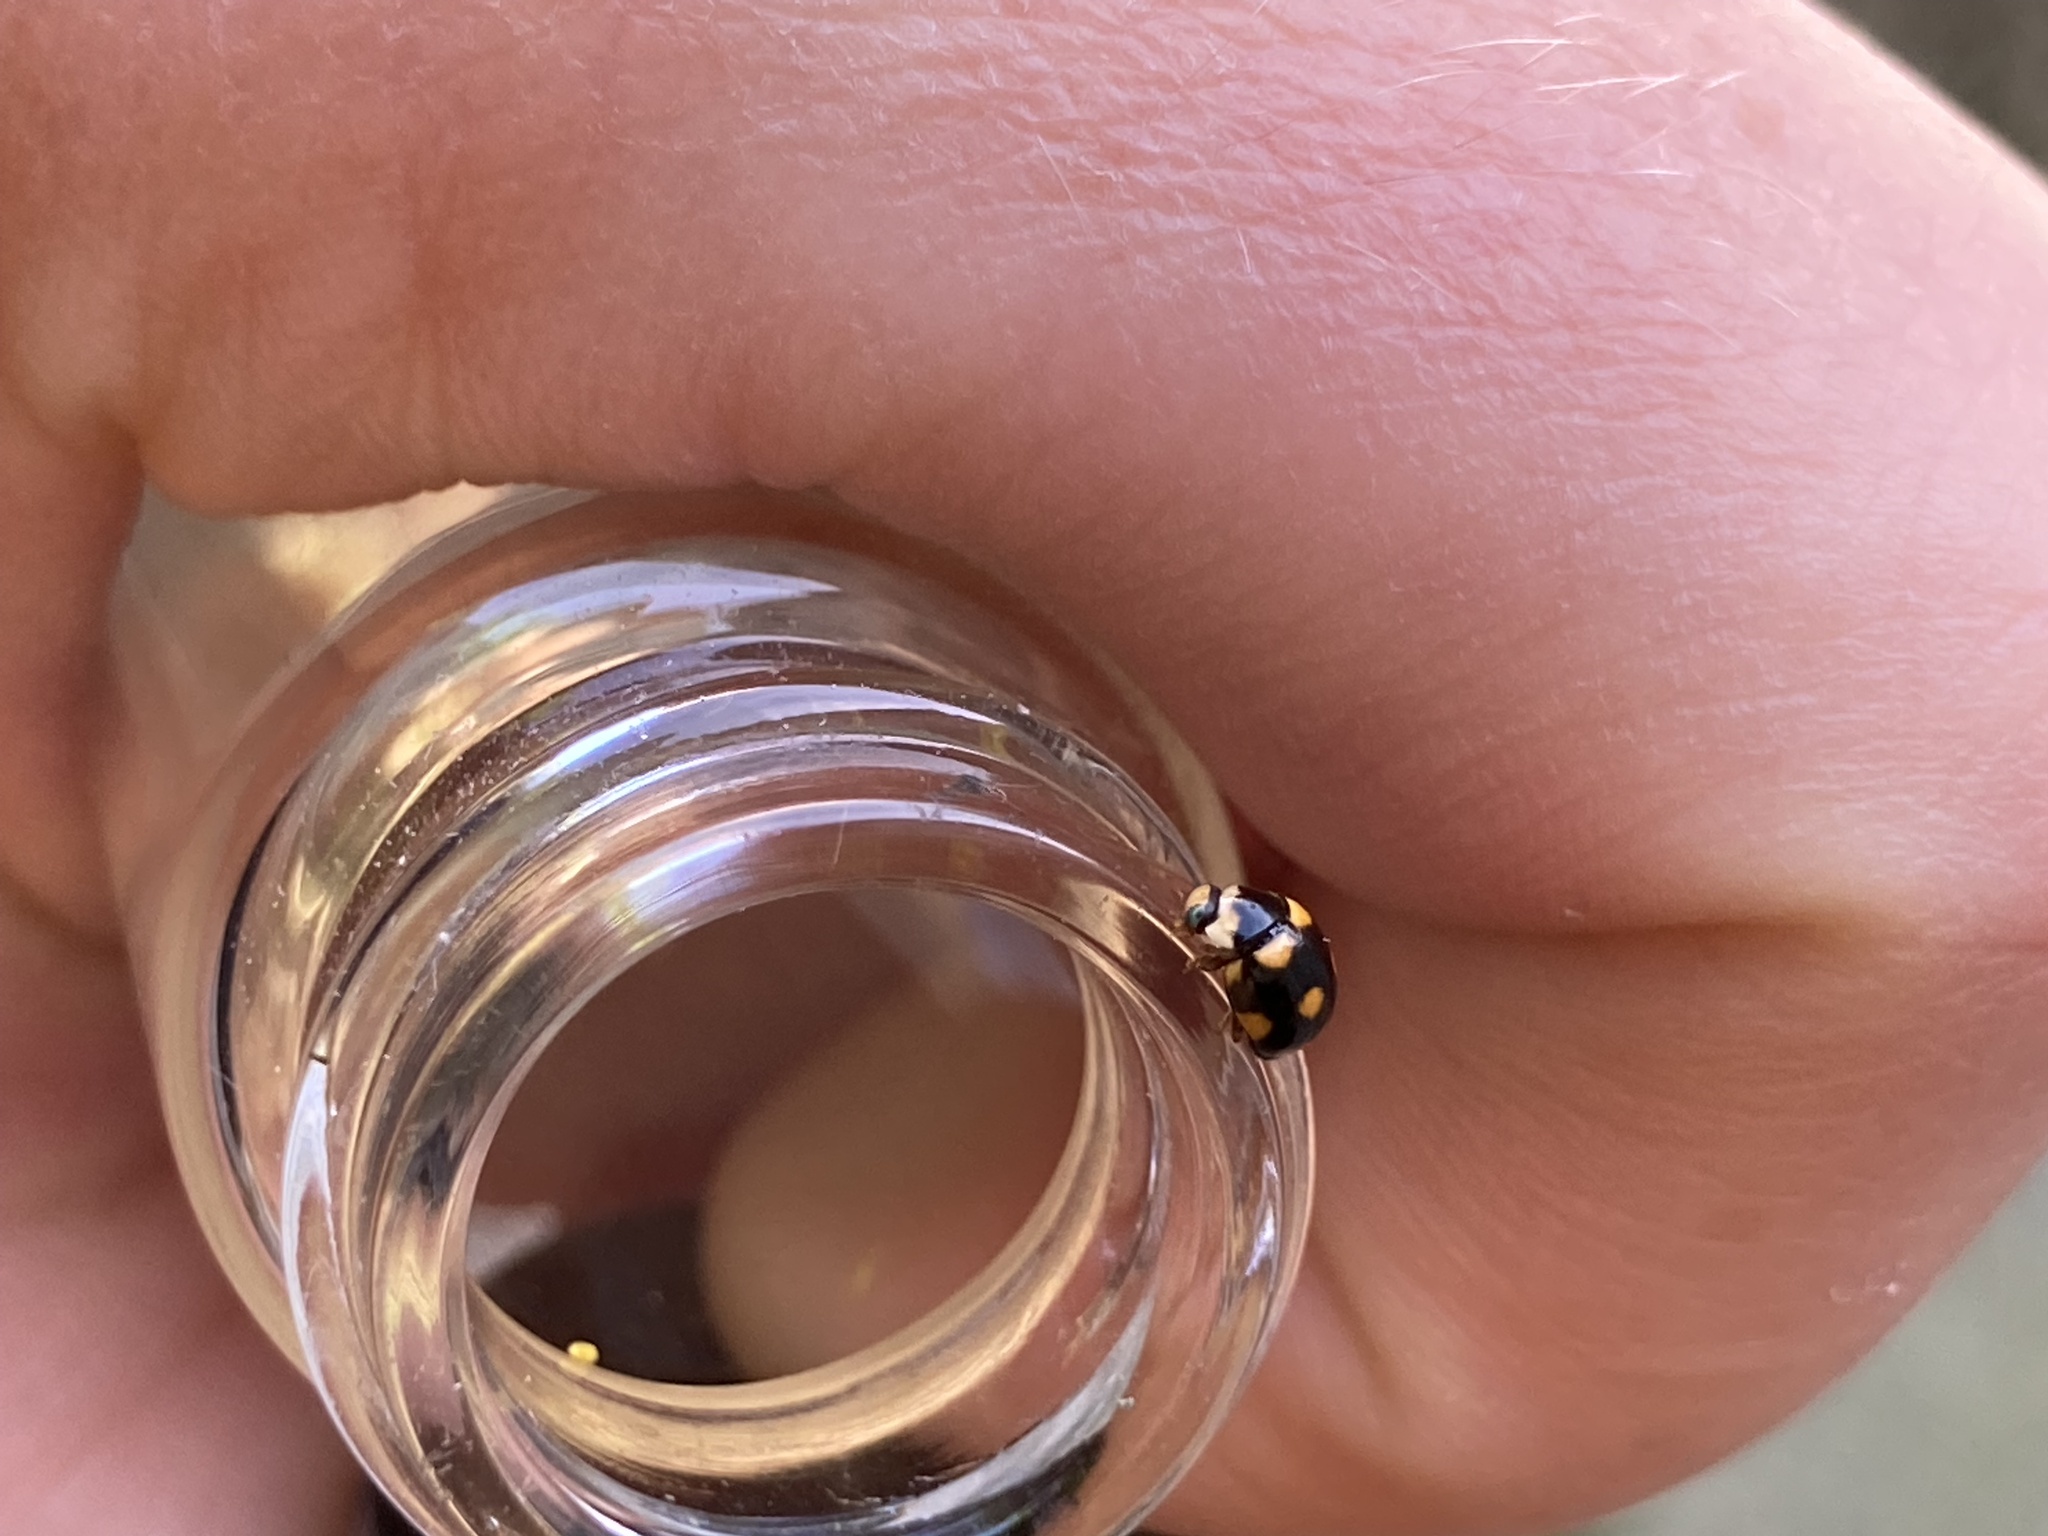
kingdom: Animalia
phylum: Arthropoda
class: Insecta
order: Coleoptera
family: Coccinellidae
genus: Brachiacantha
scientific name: Brachiacantha ursina
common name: Ursine spurleg lady beetle
